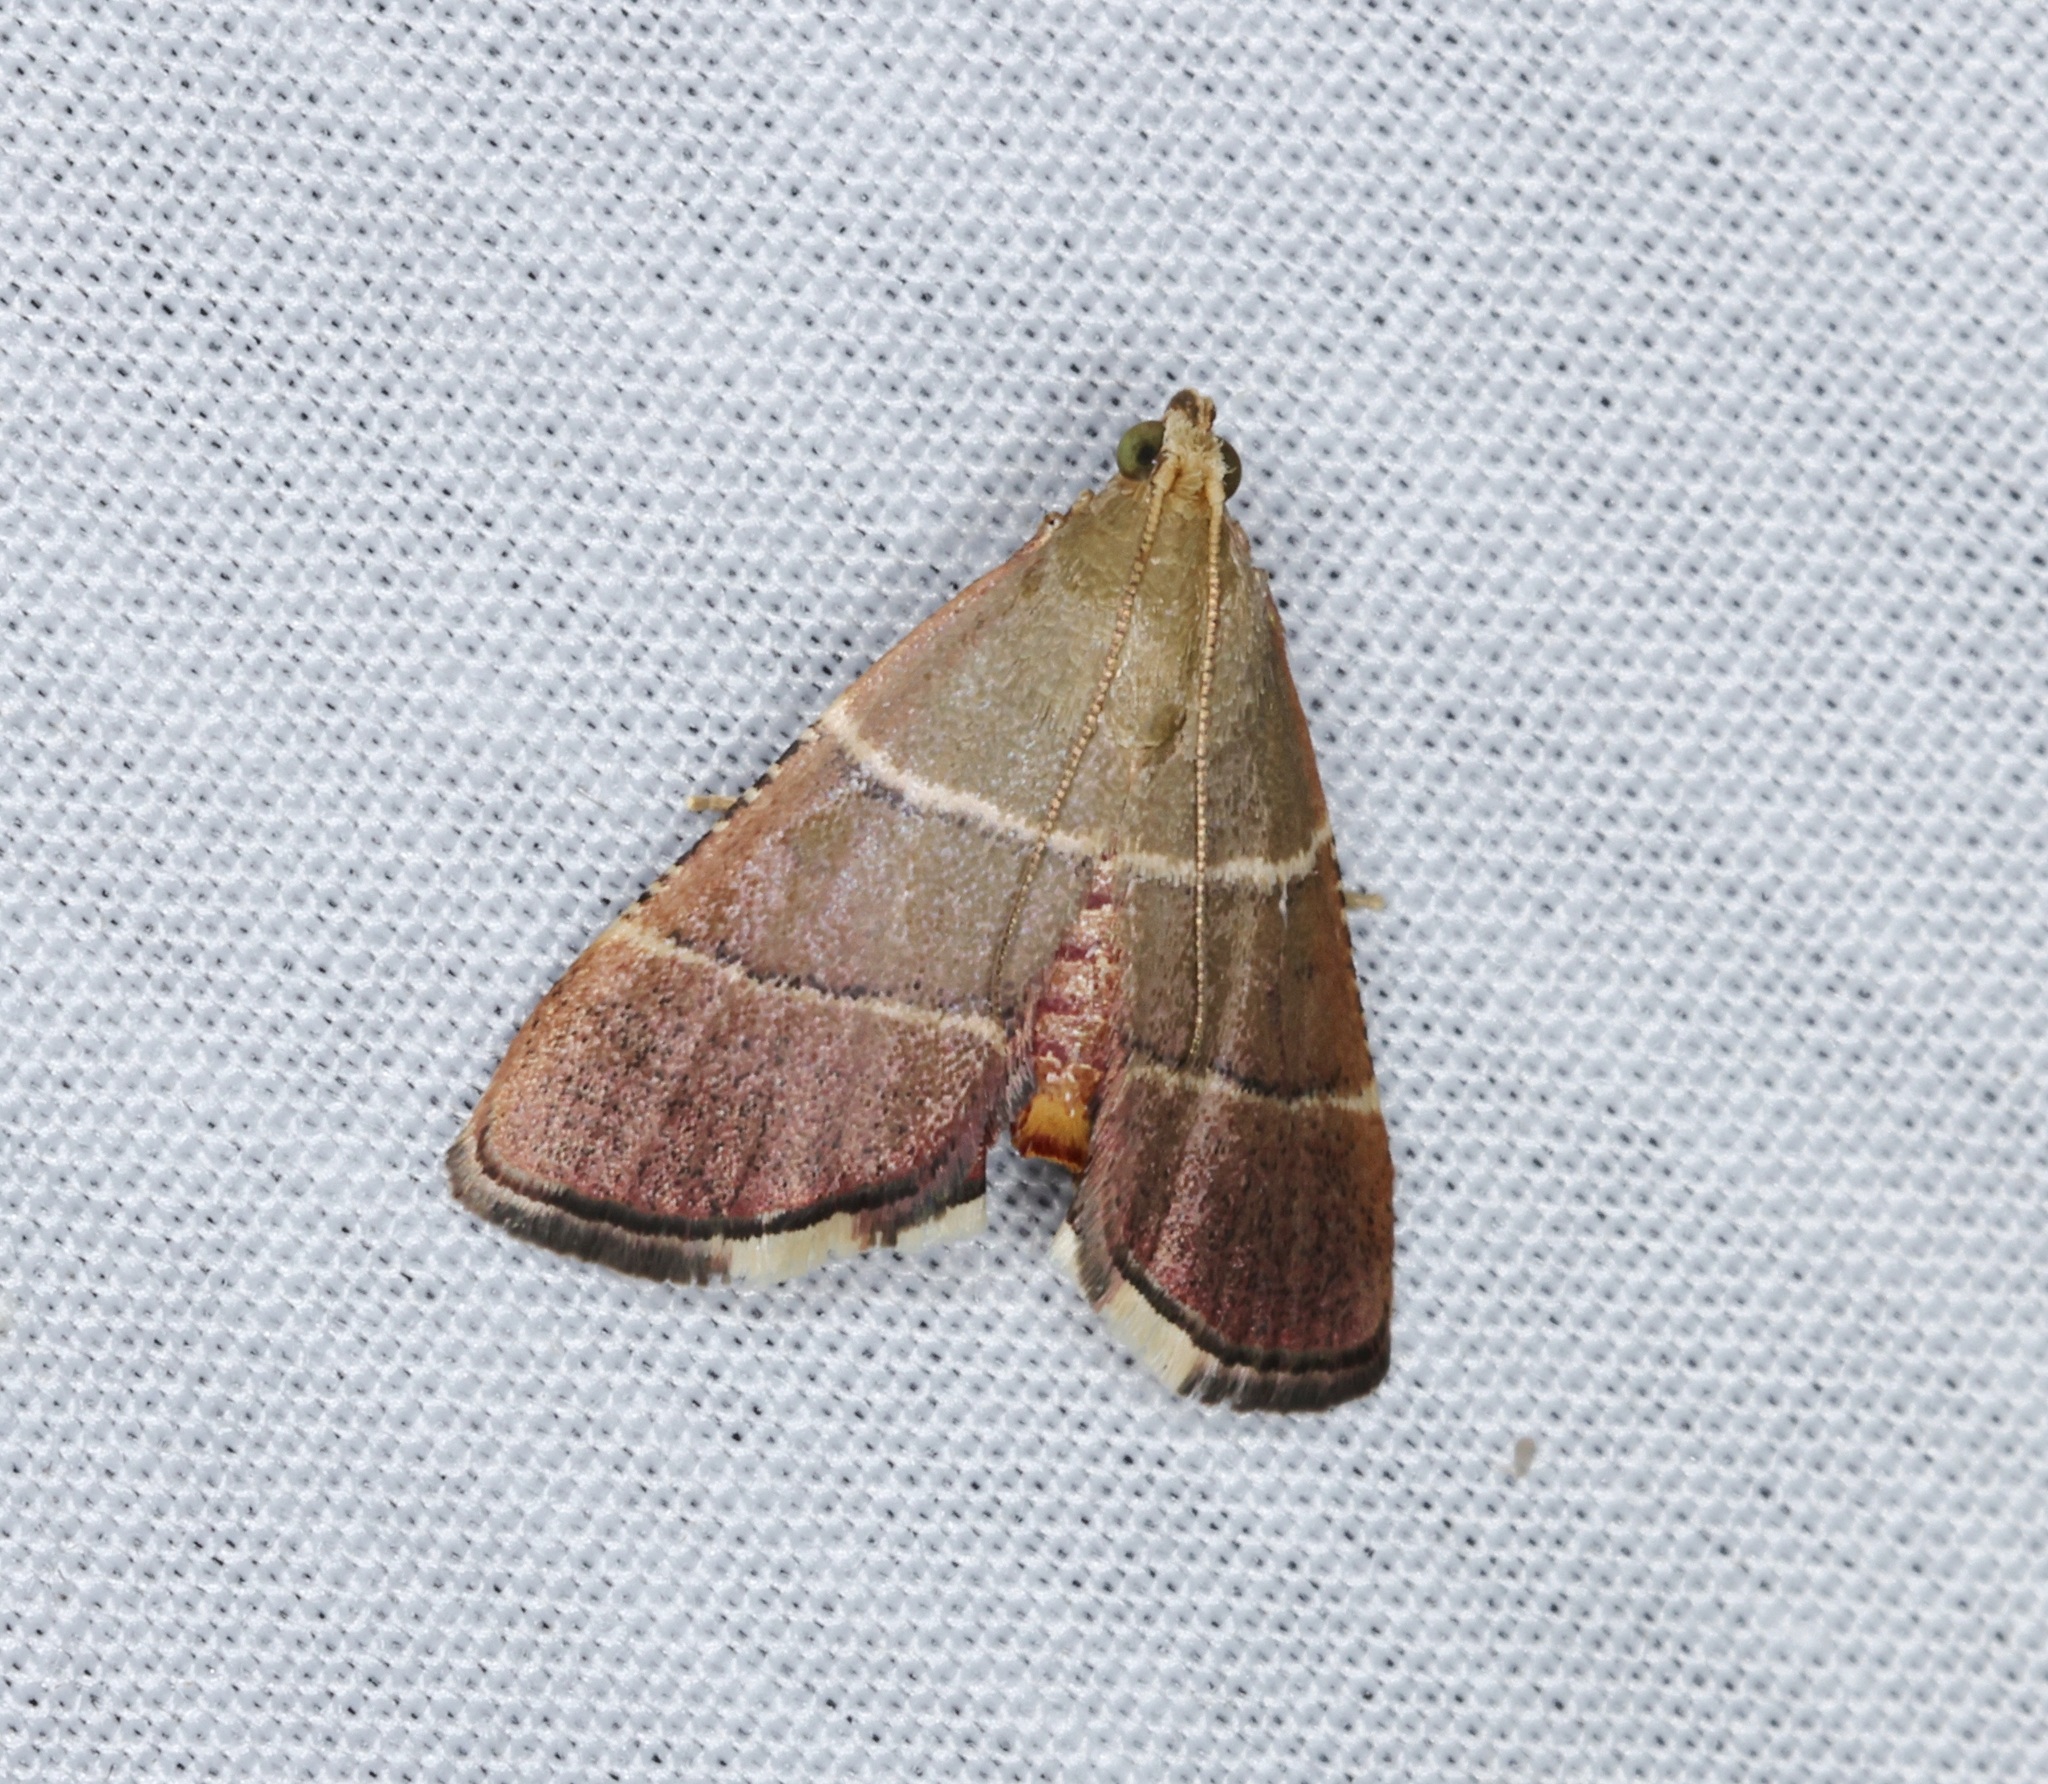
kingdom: Animalia
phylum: Arthropoda
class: Insecta
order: Lepidoptera
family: Pyralidae
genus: Stemmatophora
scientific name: Stemmatophora flavicaput
